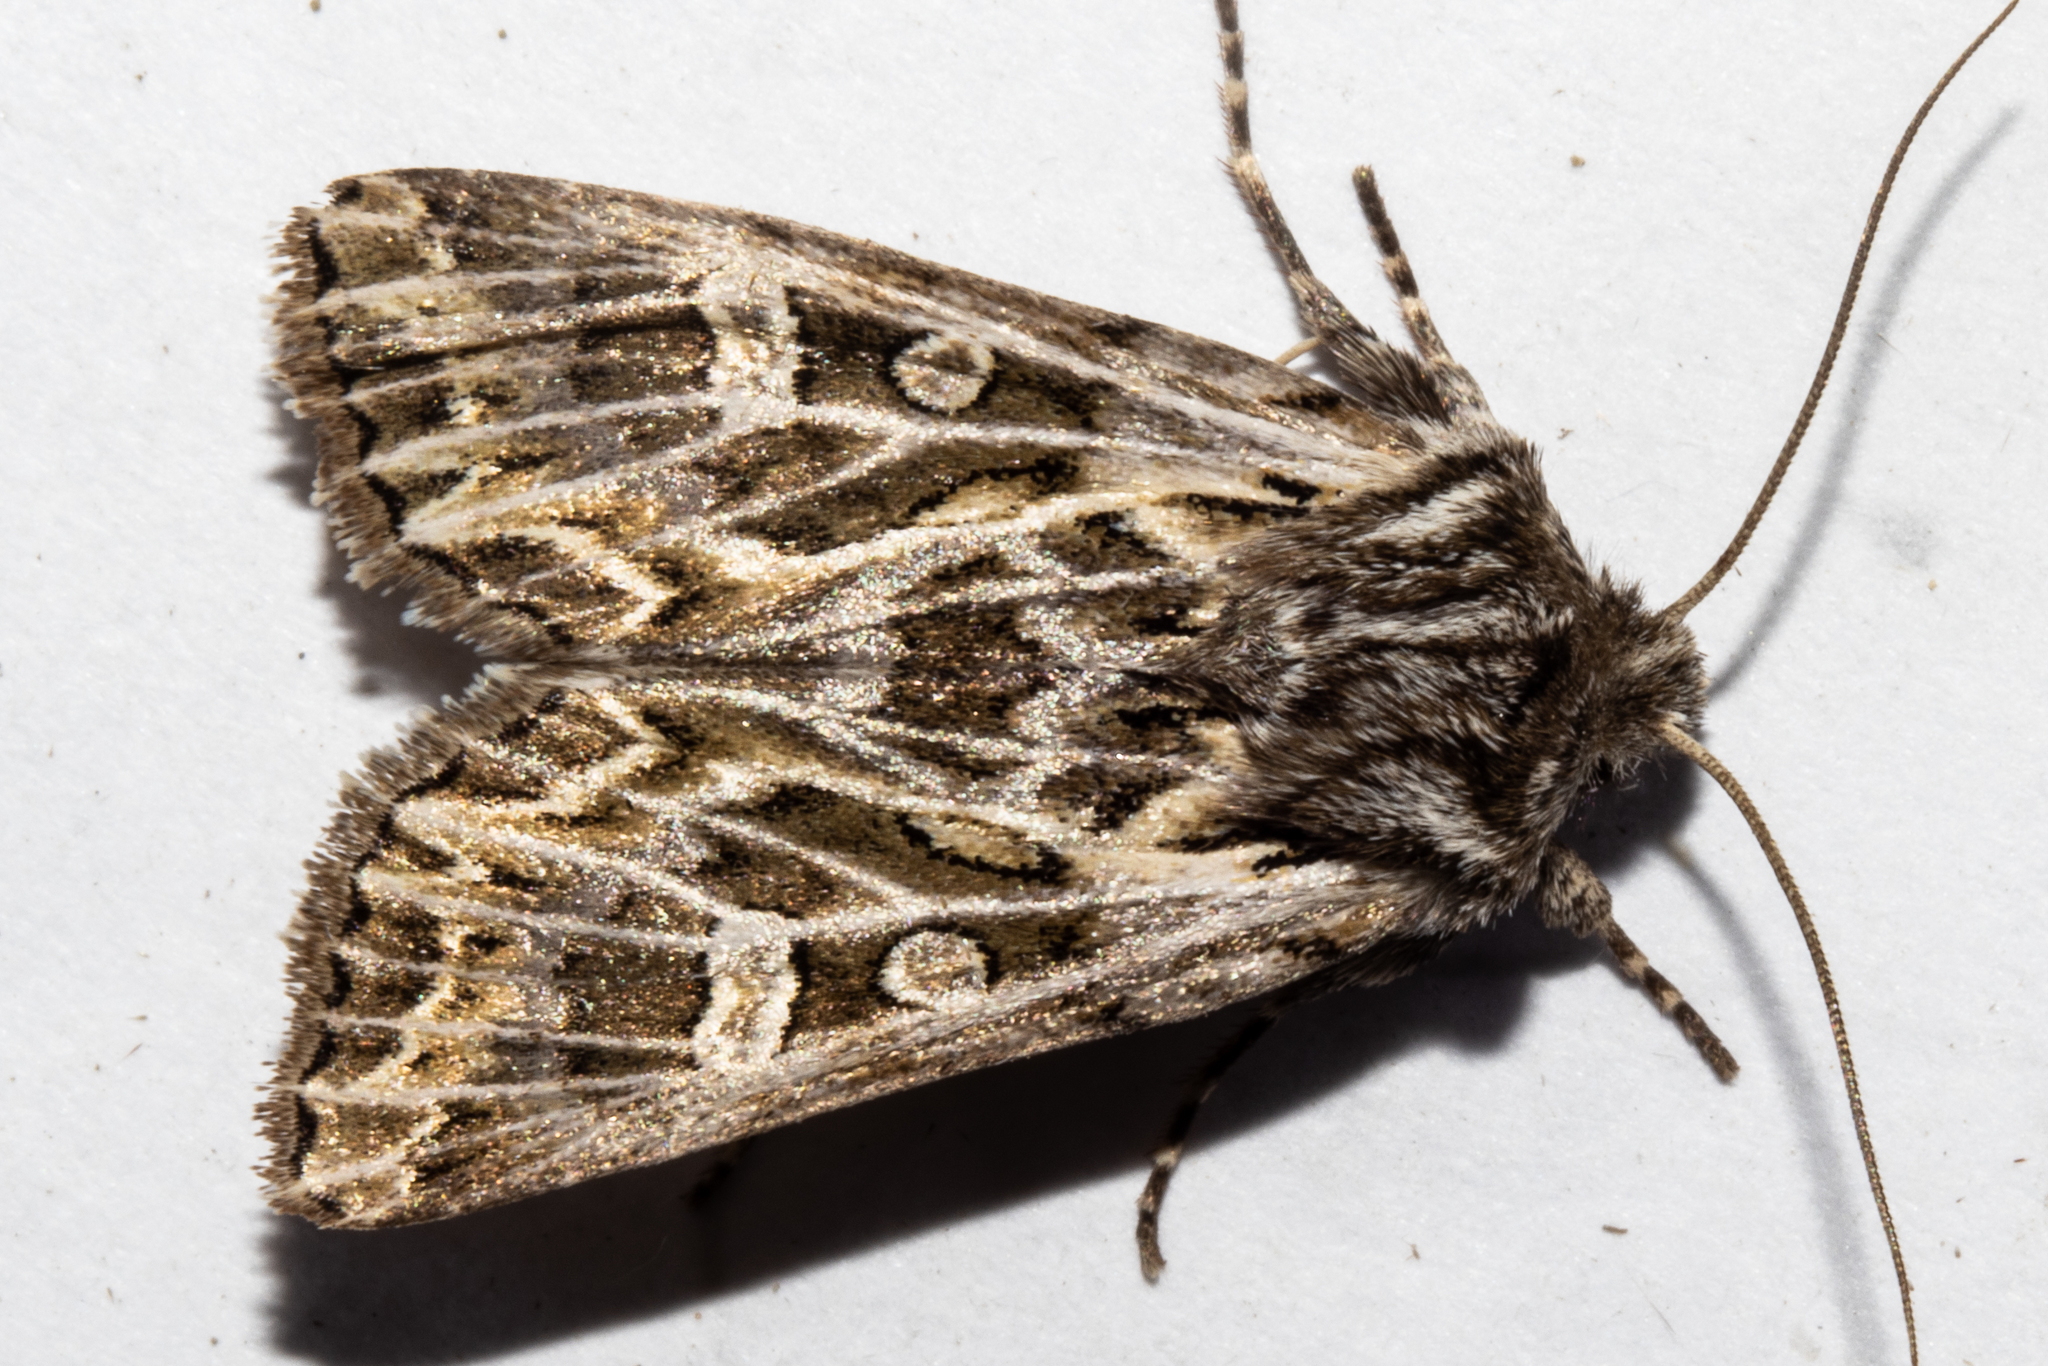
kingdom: Animalia
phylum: Arthropoda
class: Insecta
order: Lepidoptera
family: Noctuidae
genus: Ichneutica
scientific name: Ichneutica
